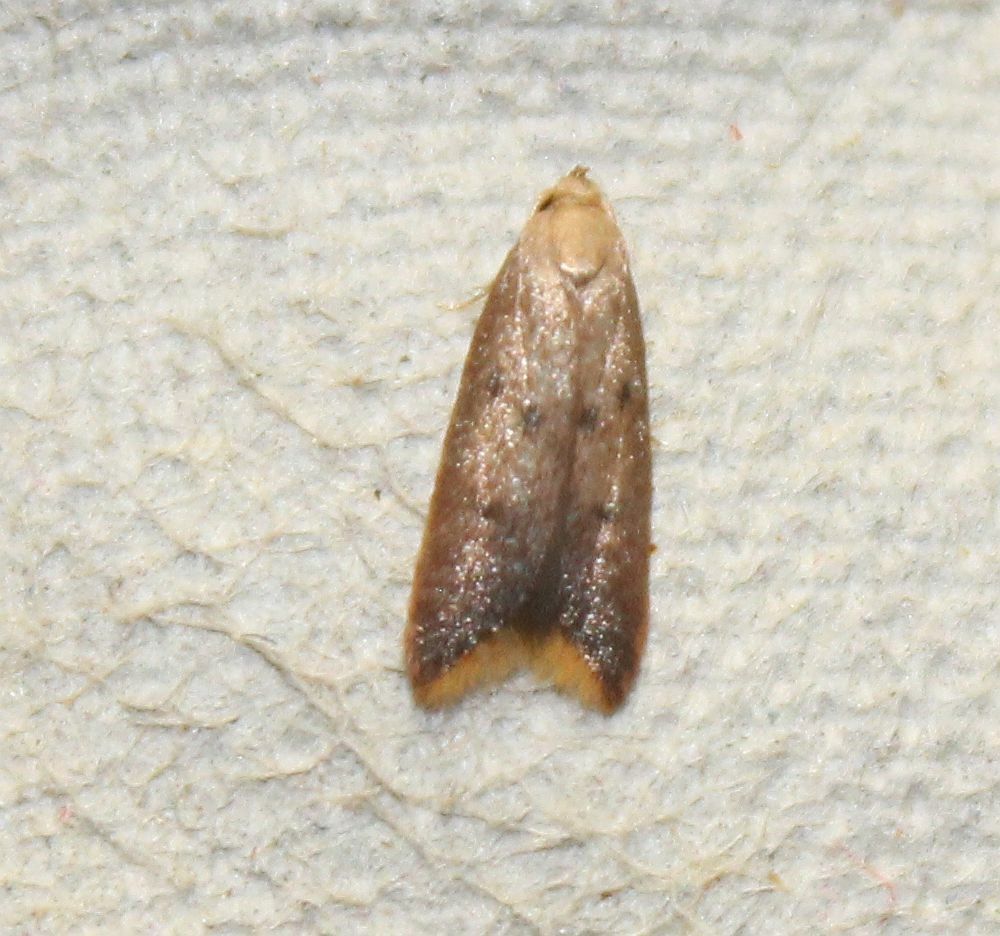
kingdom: Animalia
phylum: Arthropoda
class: Insecta
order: Lepidoptera
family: Oecophoridae
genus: Tachystola
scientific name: Tachystola acroxantha
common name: Ruddy streak
